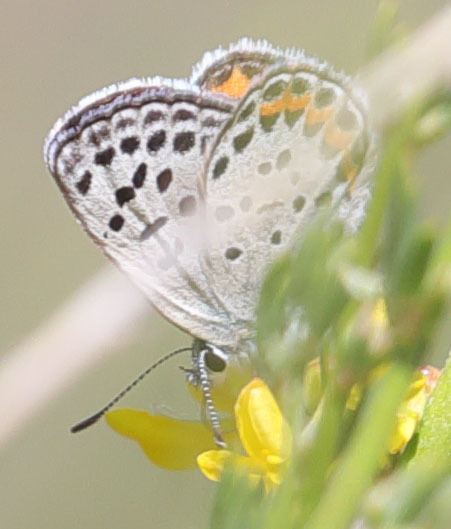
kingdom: Animalia
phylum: Arthropoda
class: Insecta
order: Lepidoptera
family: Lycaenidae
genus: Icaricia
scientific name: Icaricia acmon
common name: Acmon blue
